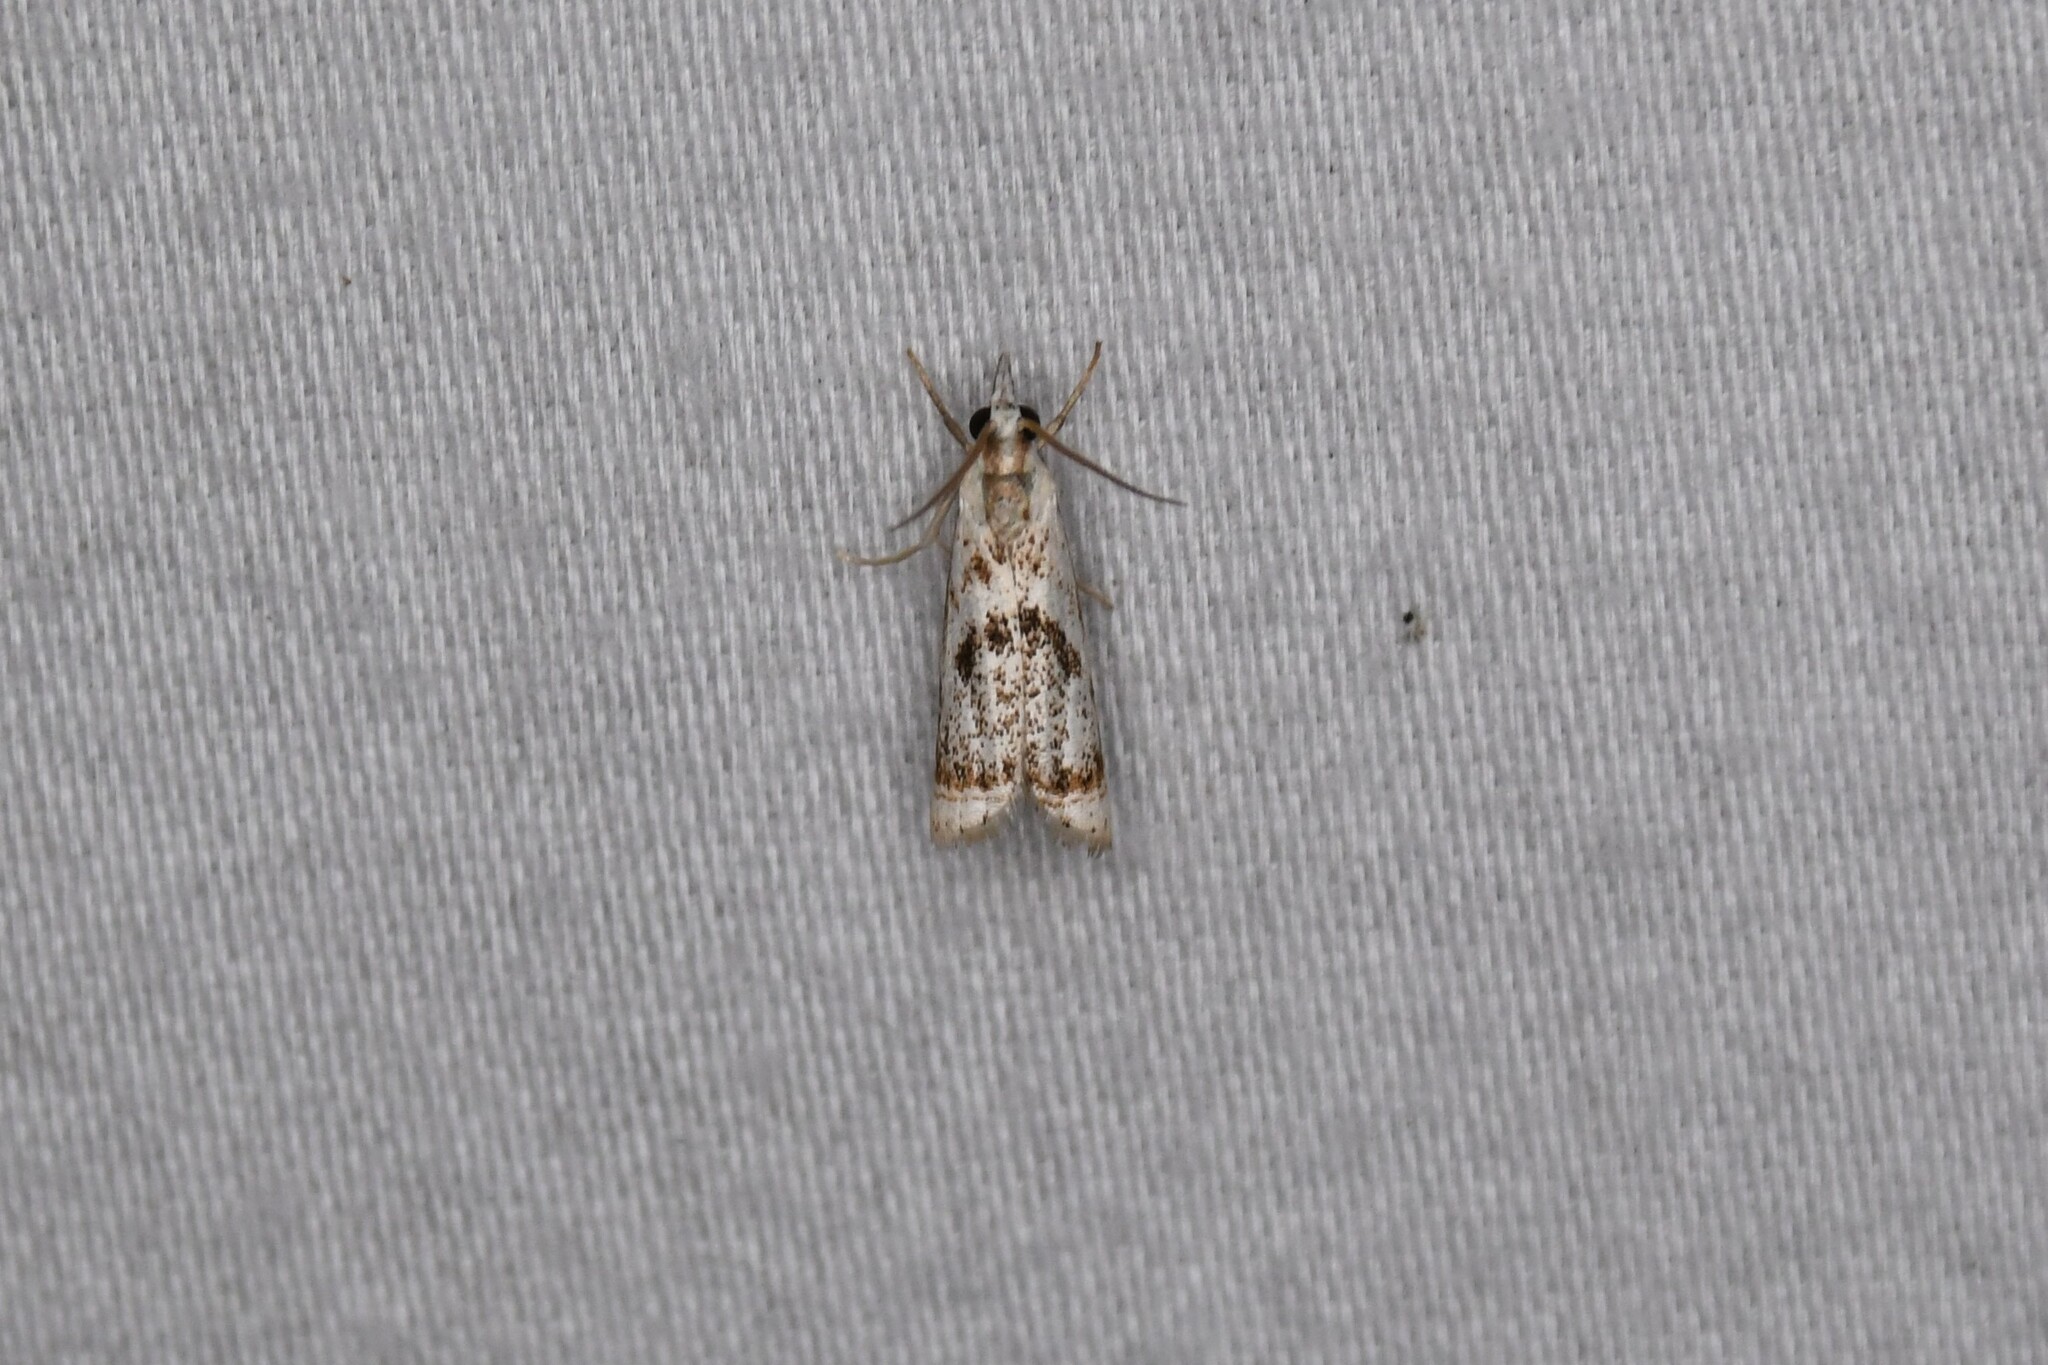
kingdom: Animalia
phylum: Arthropoda
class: Insecta
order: Lepidoptera
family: Crambidae
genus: Microcrambus
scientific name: Microcrambus elegans
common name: Elegant grass-veneer
